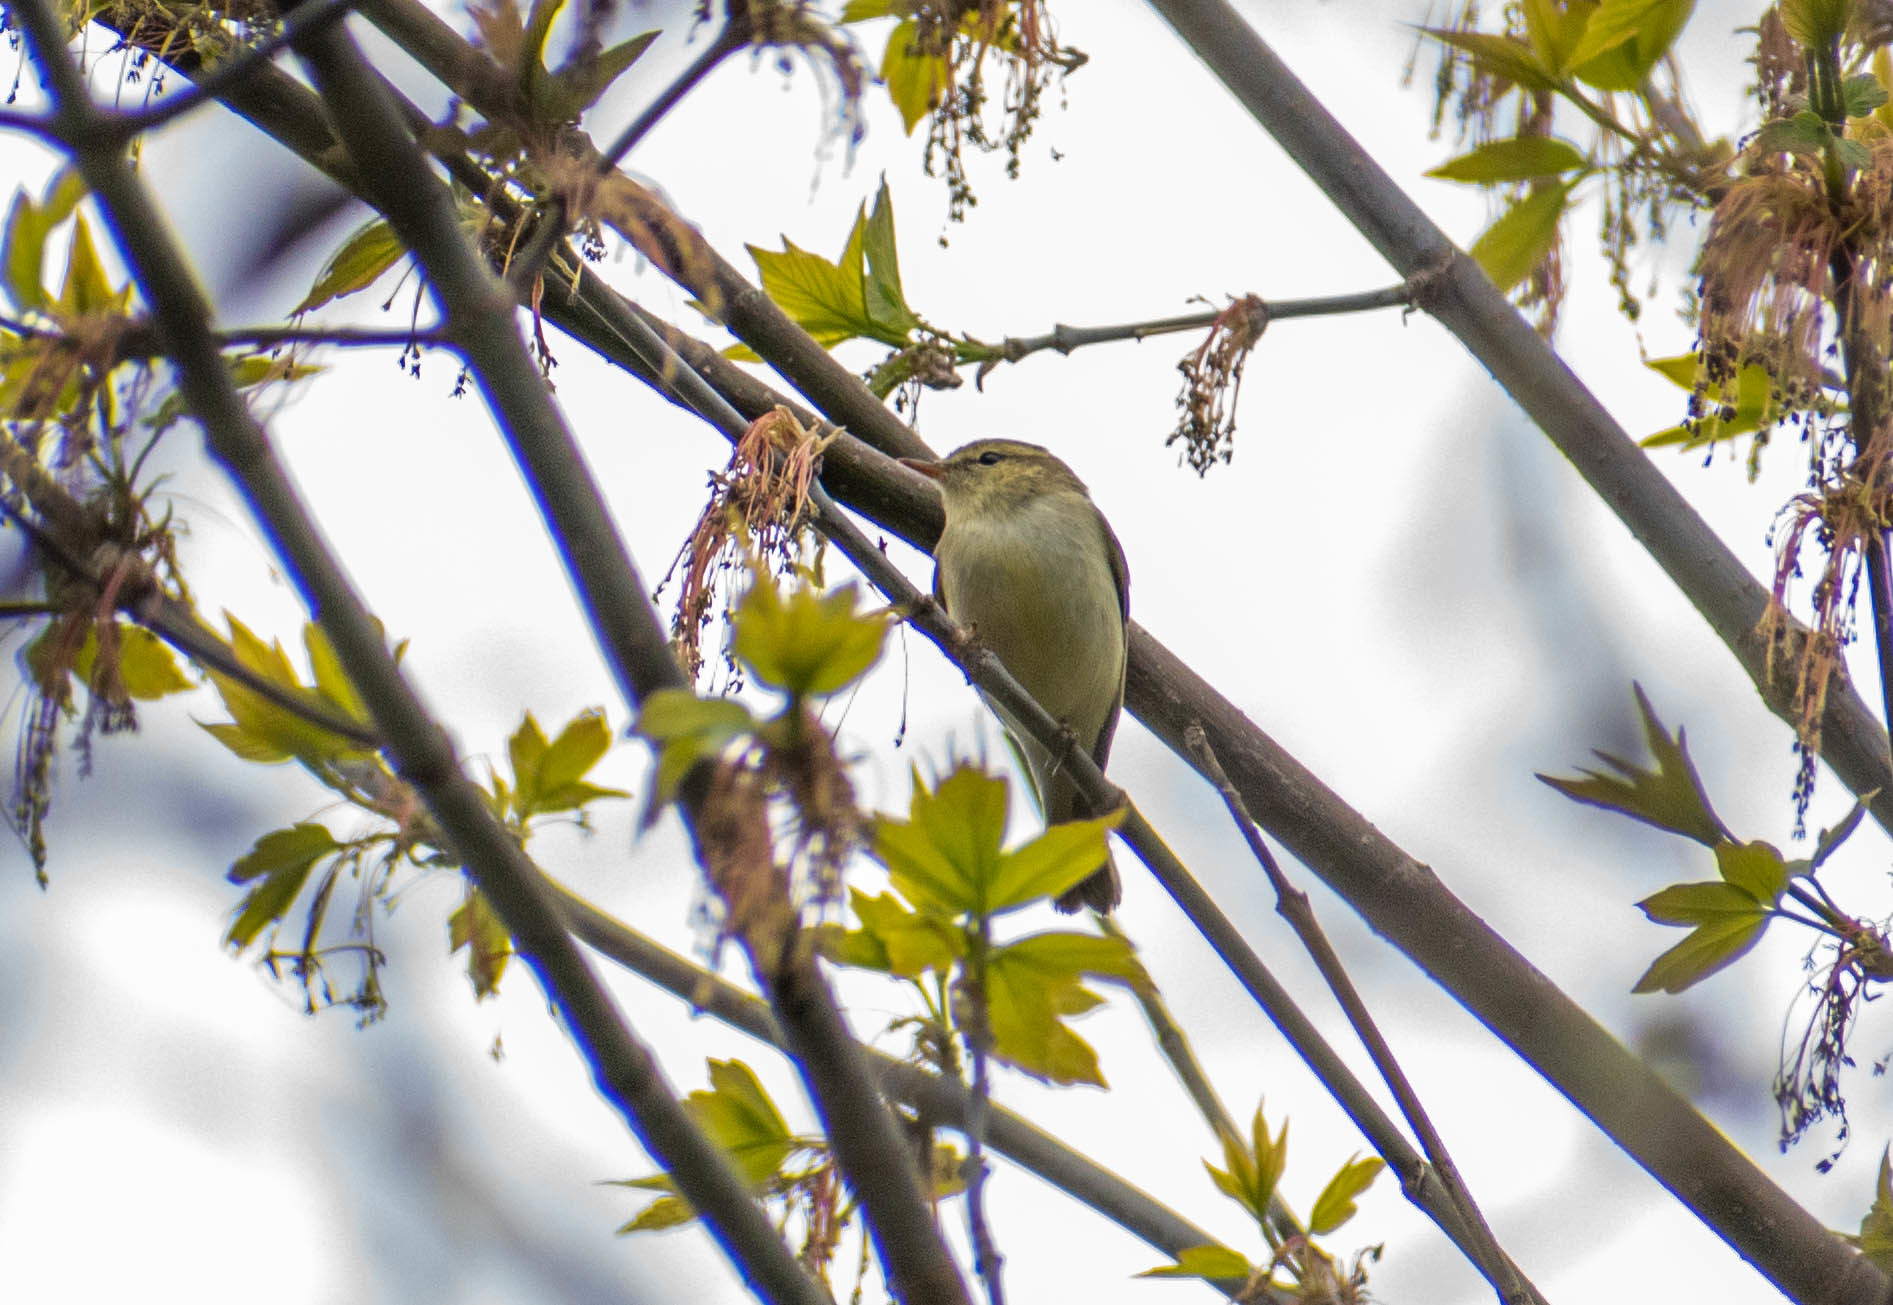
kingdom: Animalia
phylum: Chordata
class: Aves
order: Passeriformes
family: Phylloscopidae
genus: Phylloscopus
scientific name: Phylloscopus trochiloides
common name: Greenish warbler
